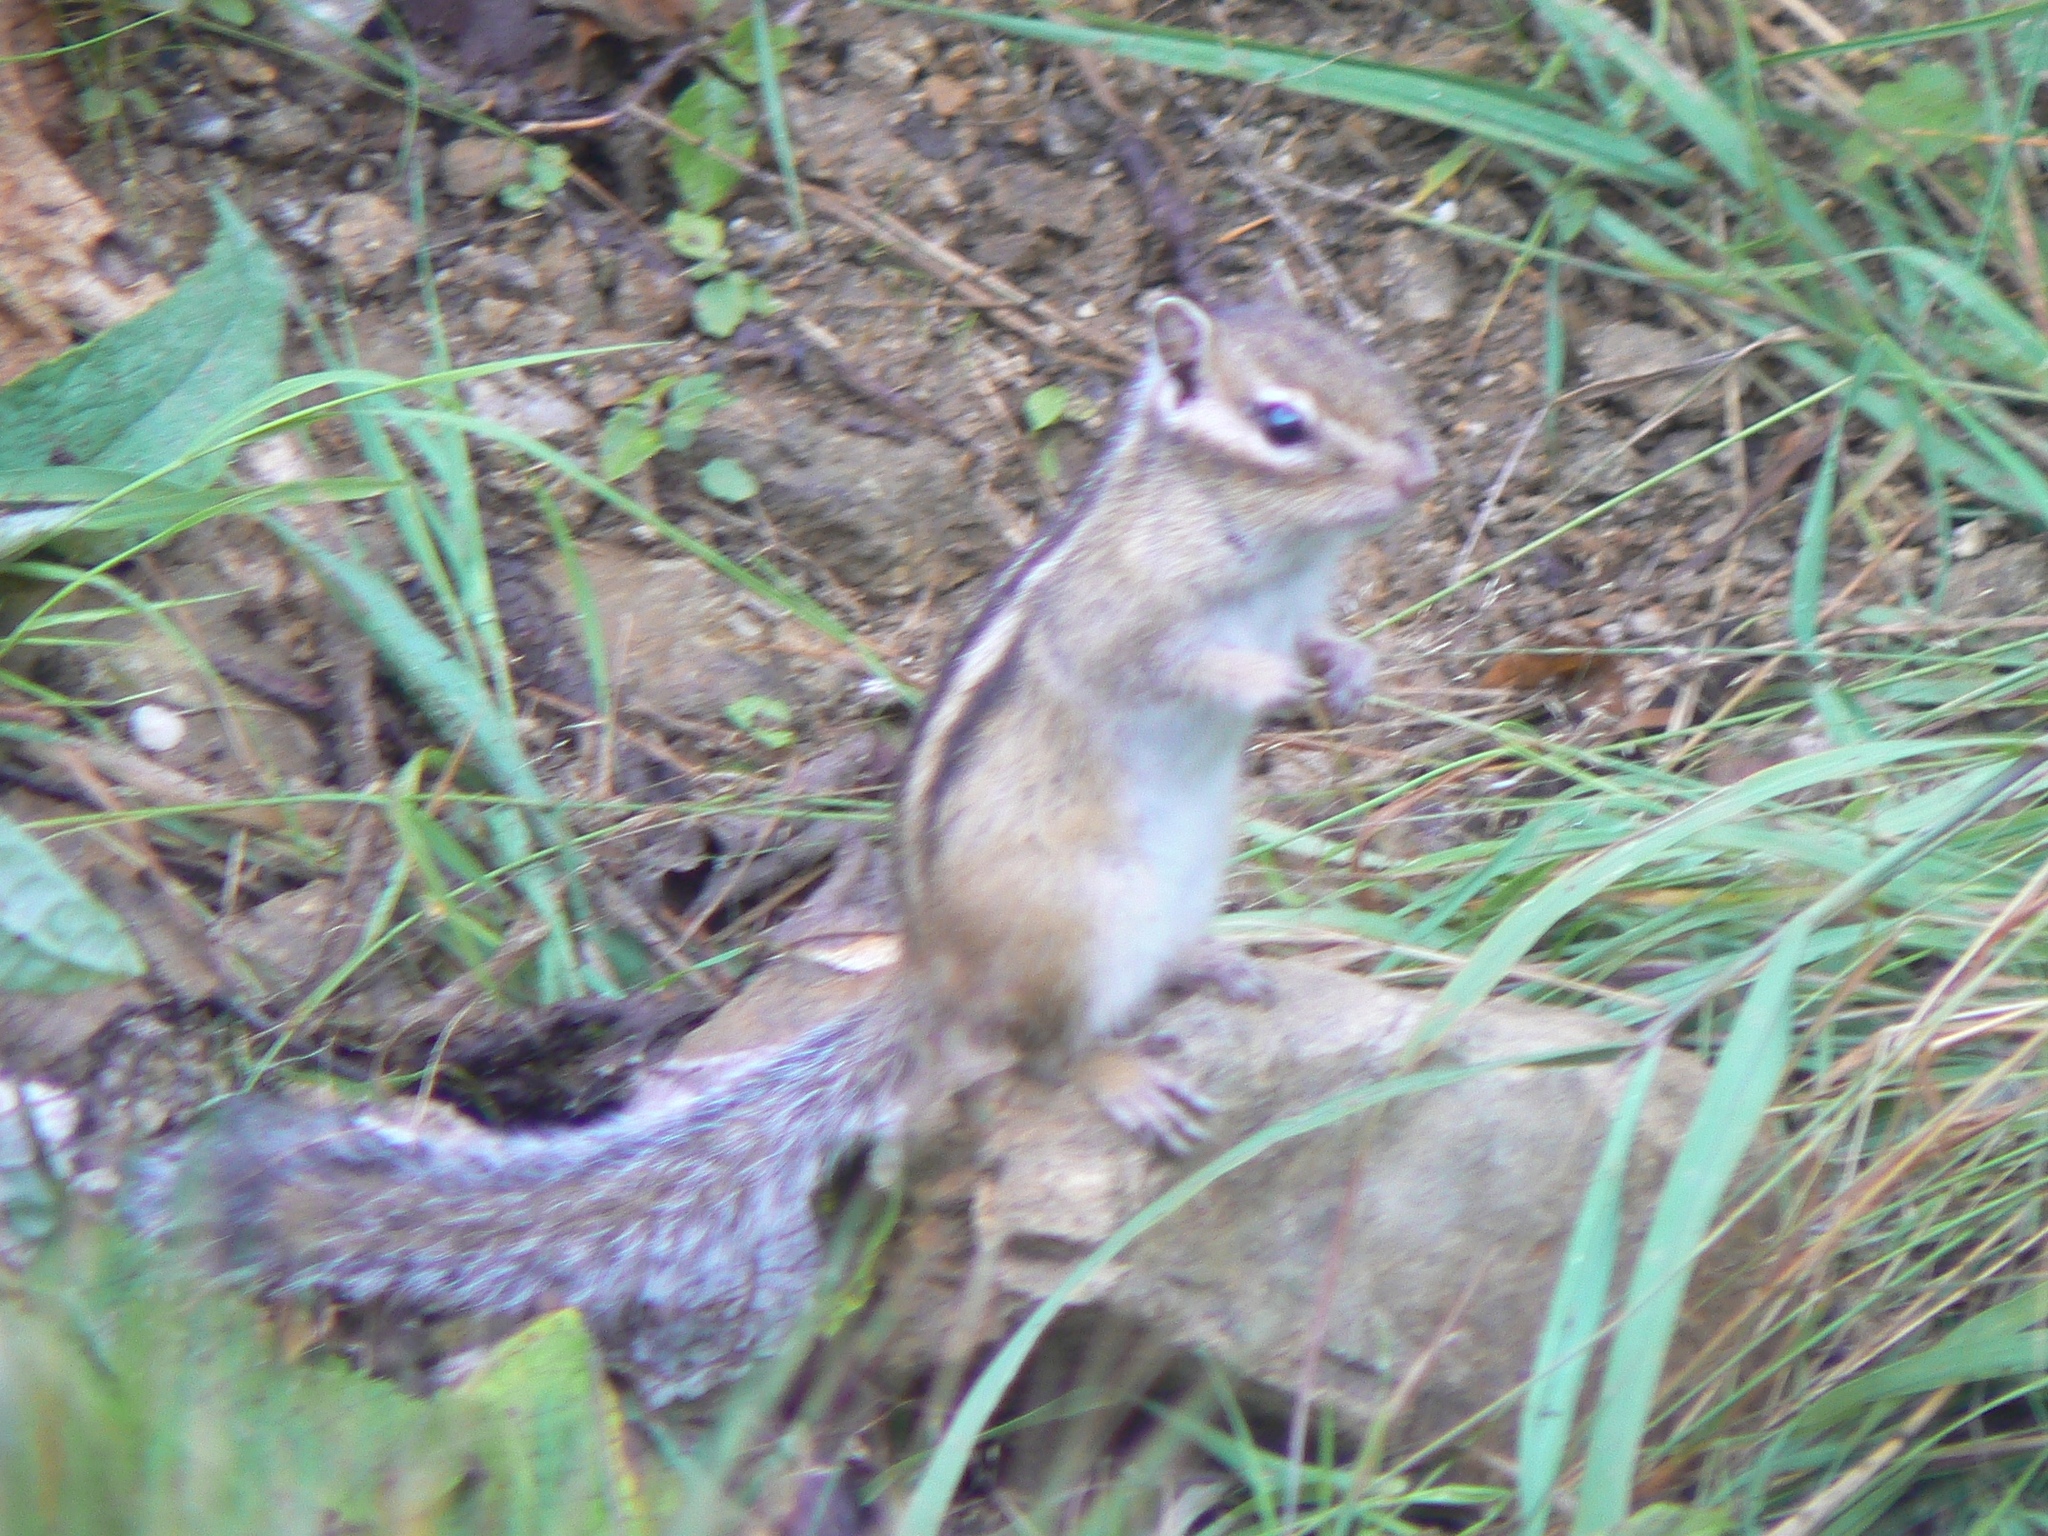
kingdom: Animalia
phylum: Chordata
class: Mammalia
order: Rodentia
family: Sciuridae
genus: Tamias
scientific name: Tamias sibiricus
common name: Siberian chipmunk
